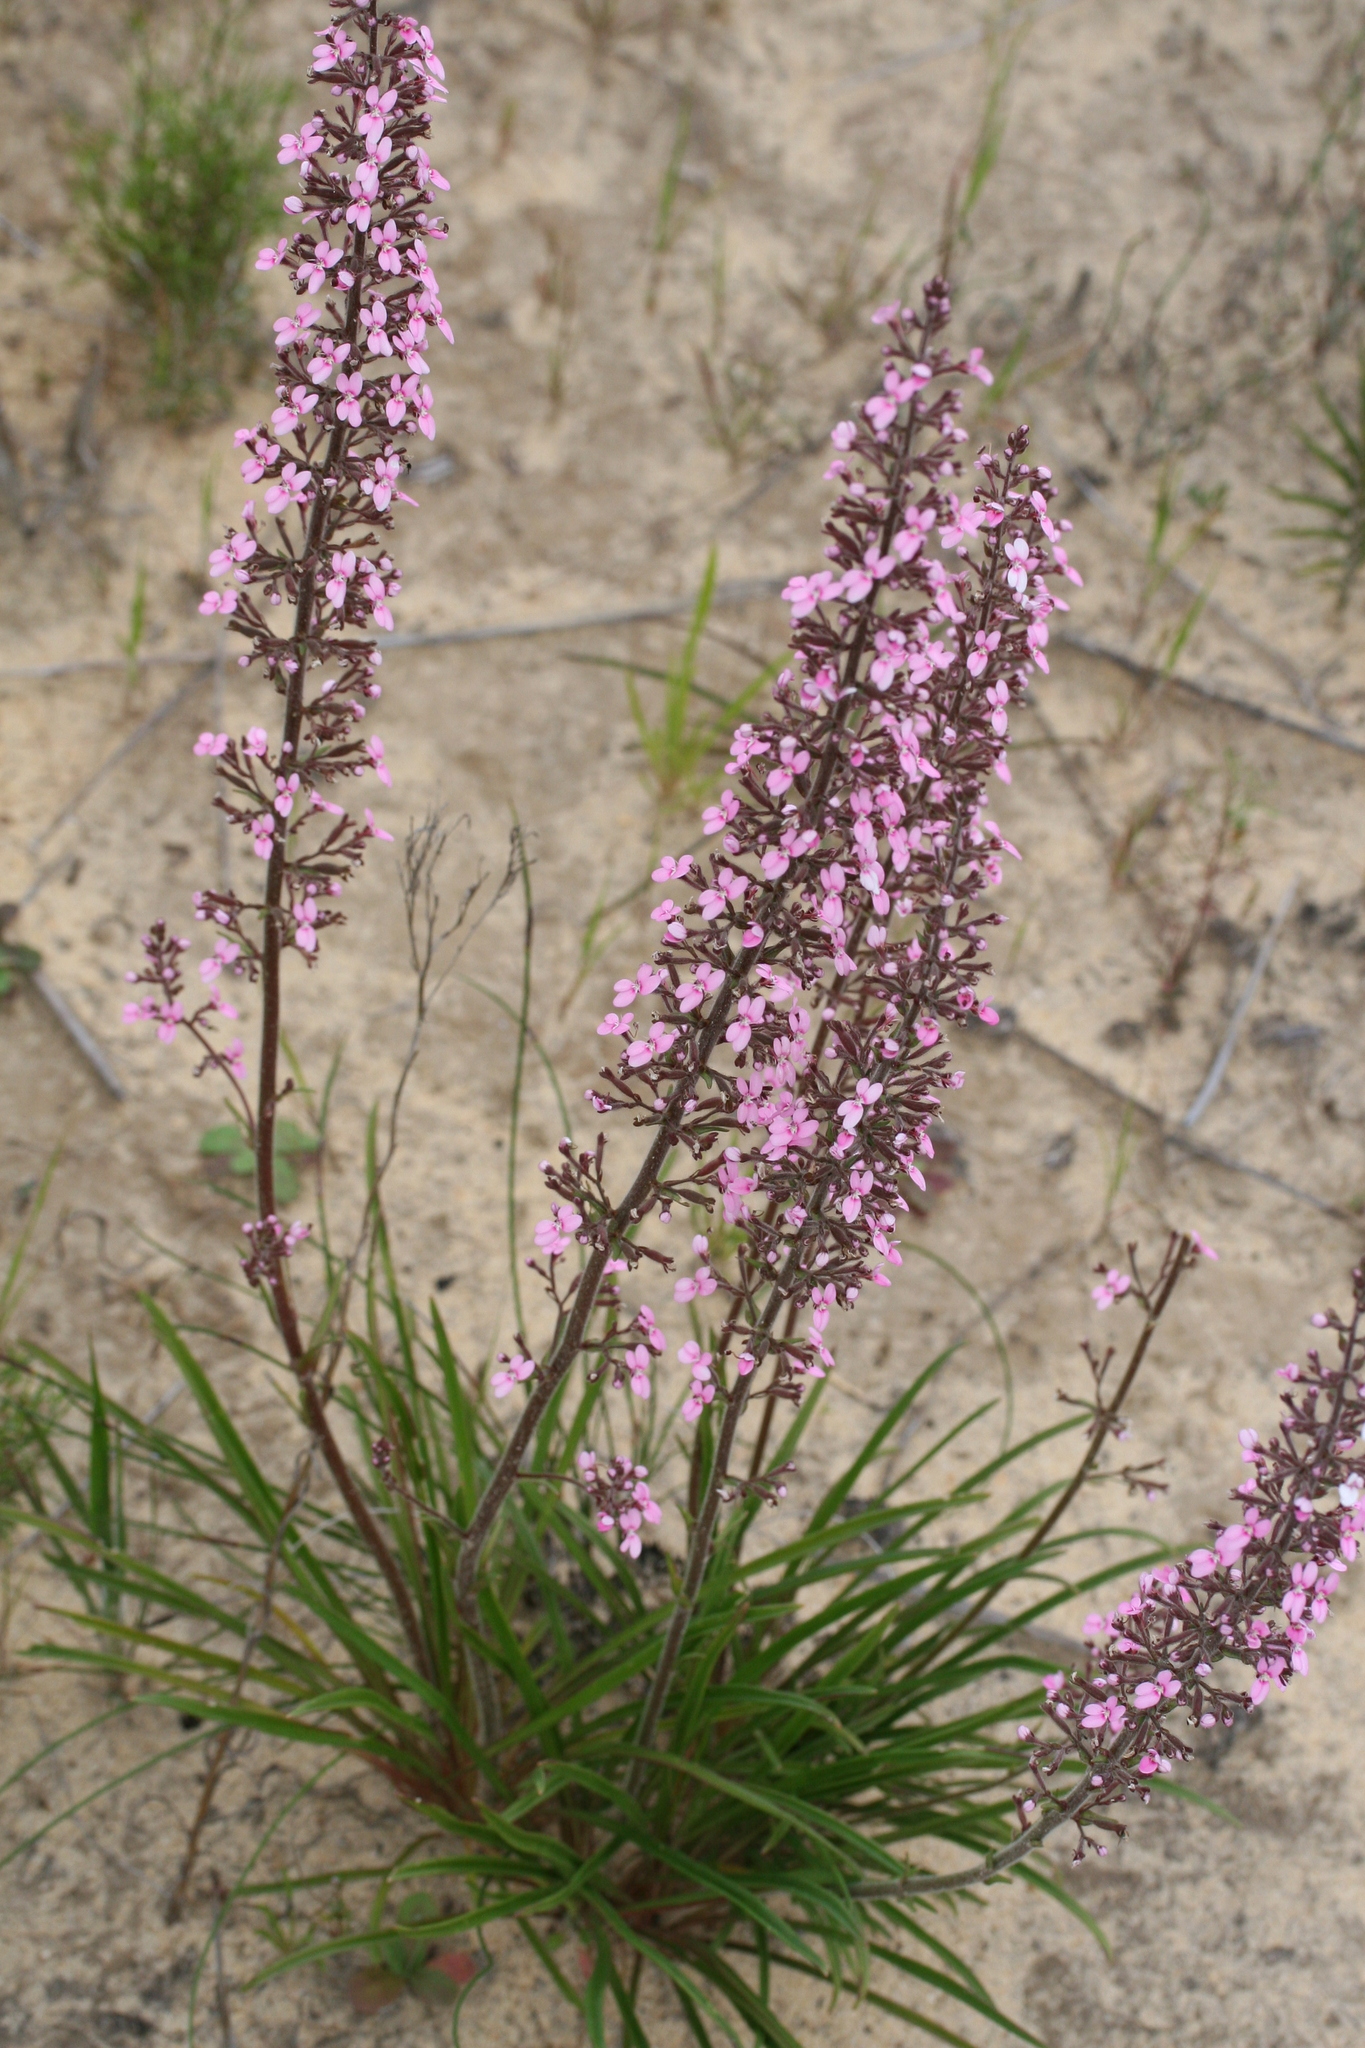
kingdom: Plantae
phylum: Tracheophyta
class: Magnoliopsida
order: Asterales
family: Stylidiaceae
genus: Stylidium
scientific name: Stylidium elongatum
